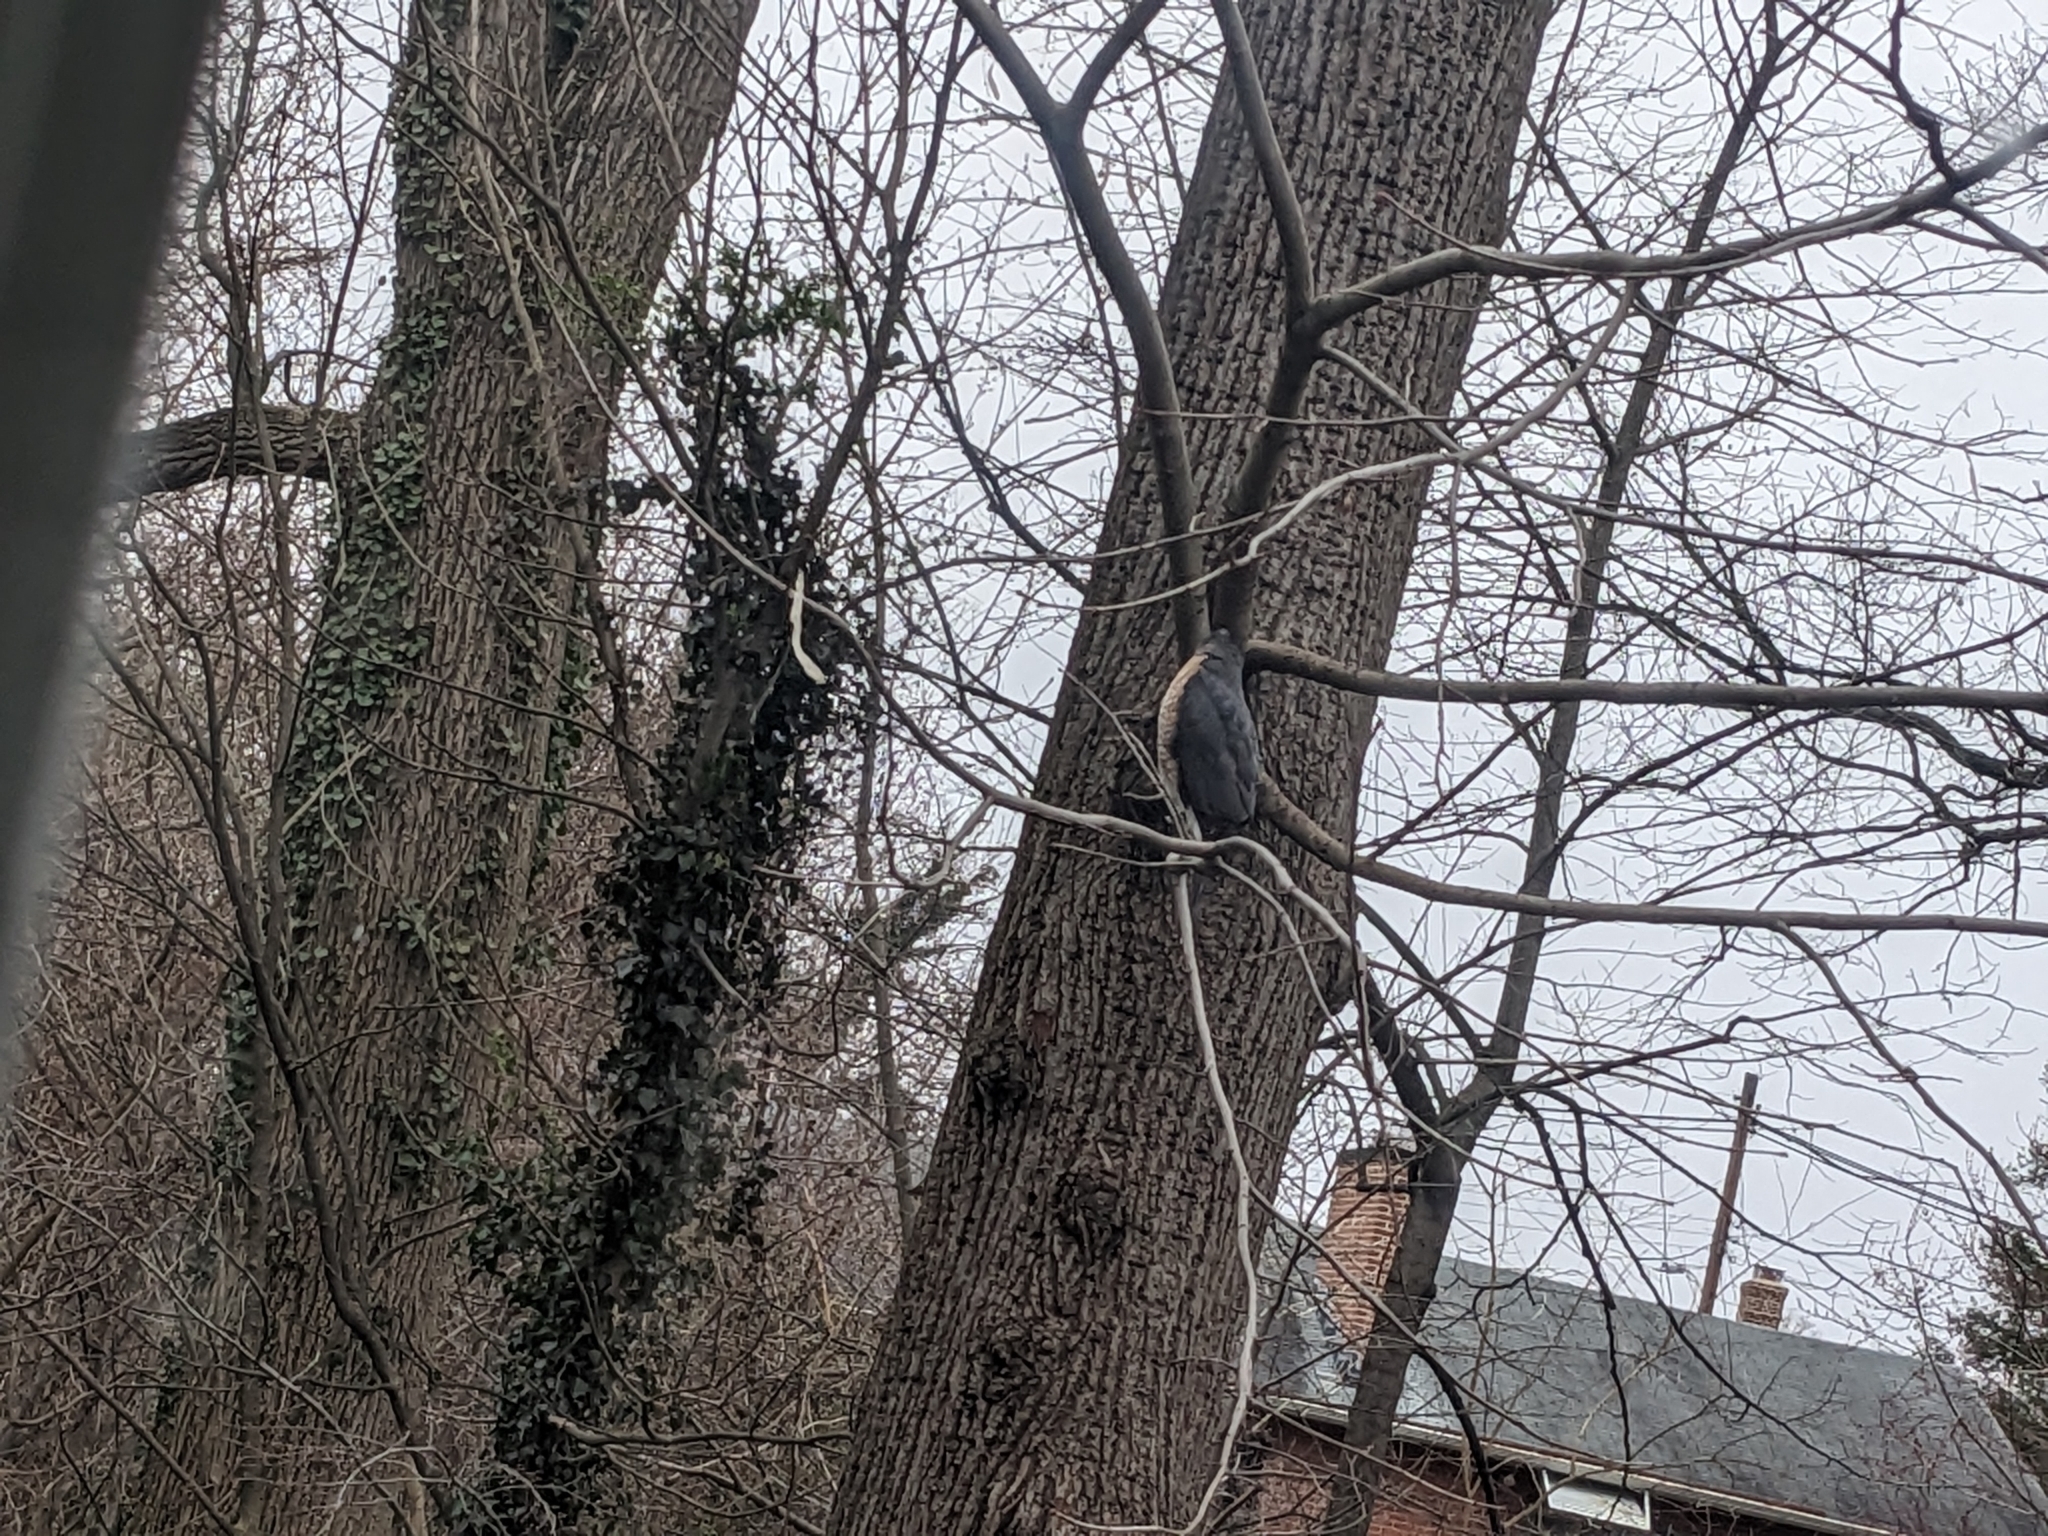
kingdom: Animalia
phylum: Chordata
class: Aves
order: Accipitriformes
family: Accipitridae
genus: Accipiter
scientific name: Accipiter cooperii
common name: Cooper's hawk
